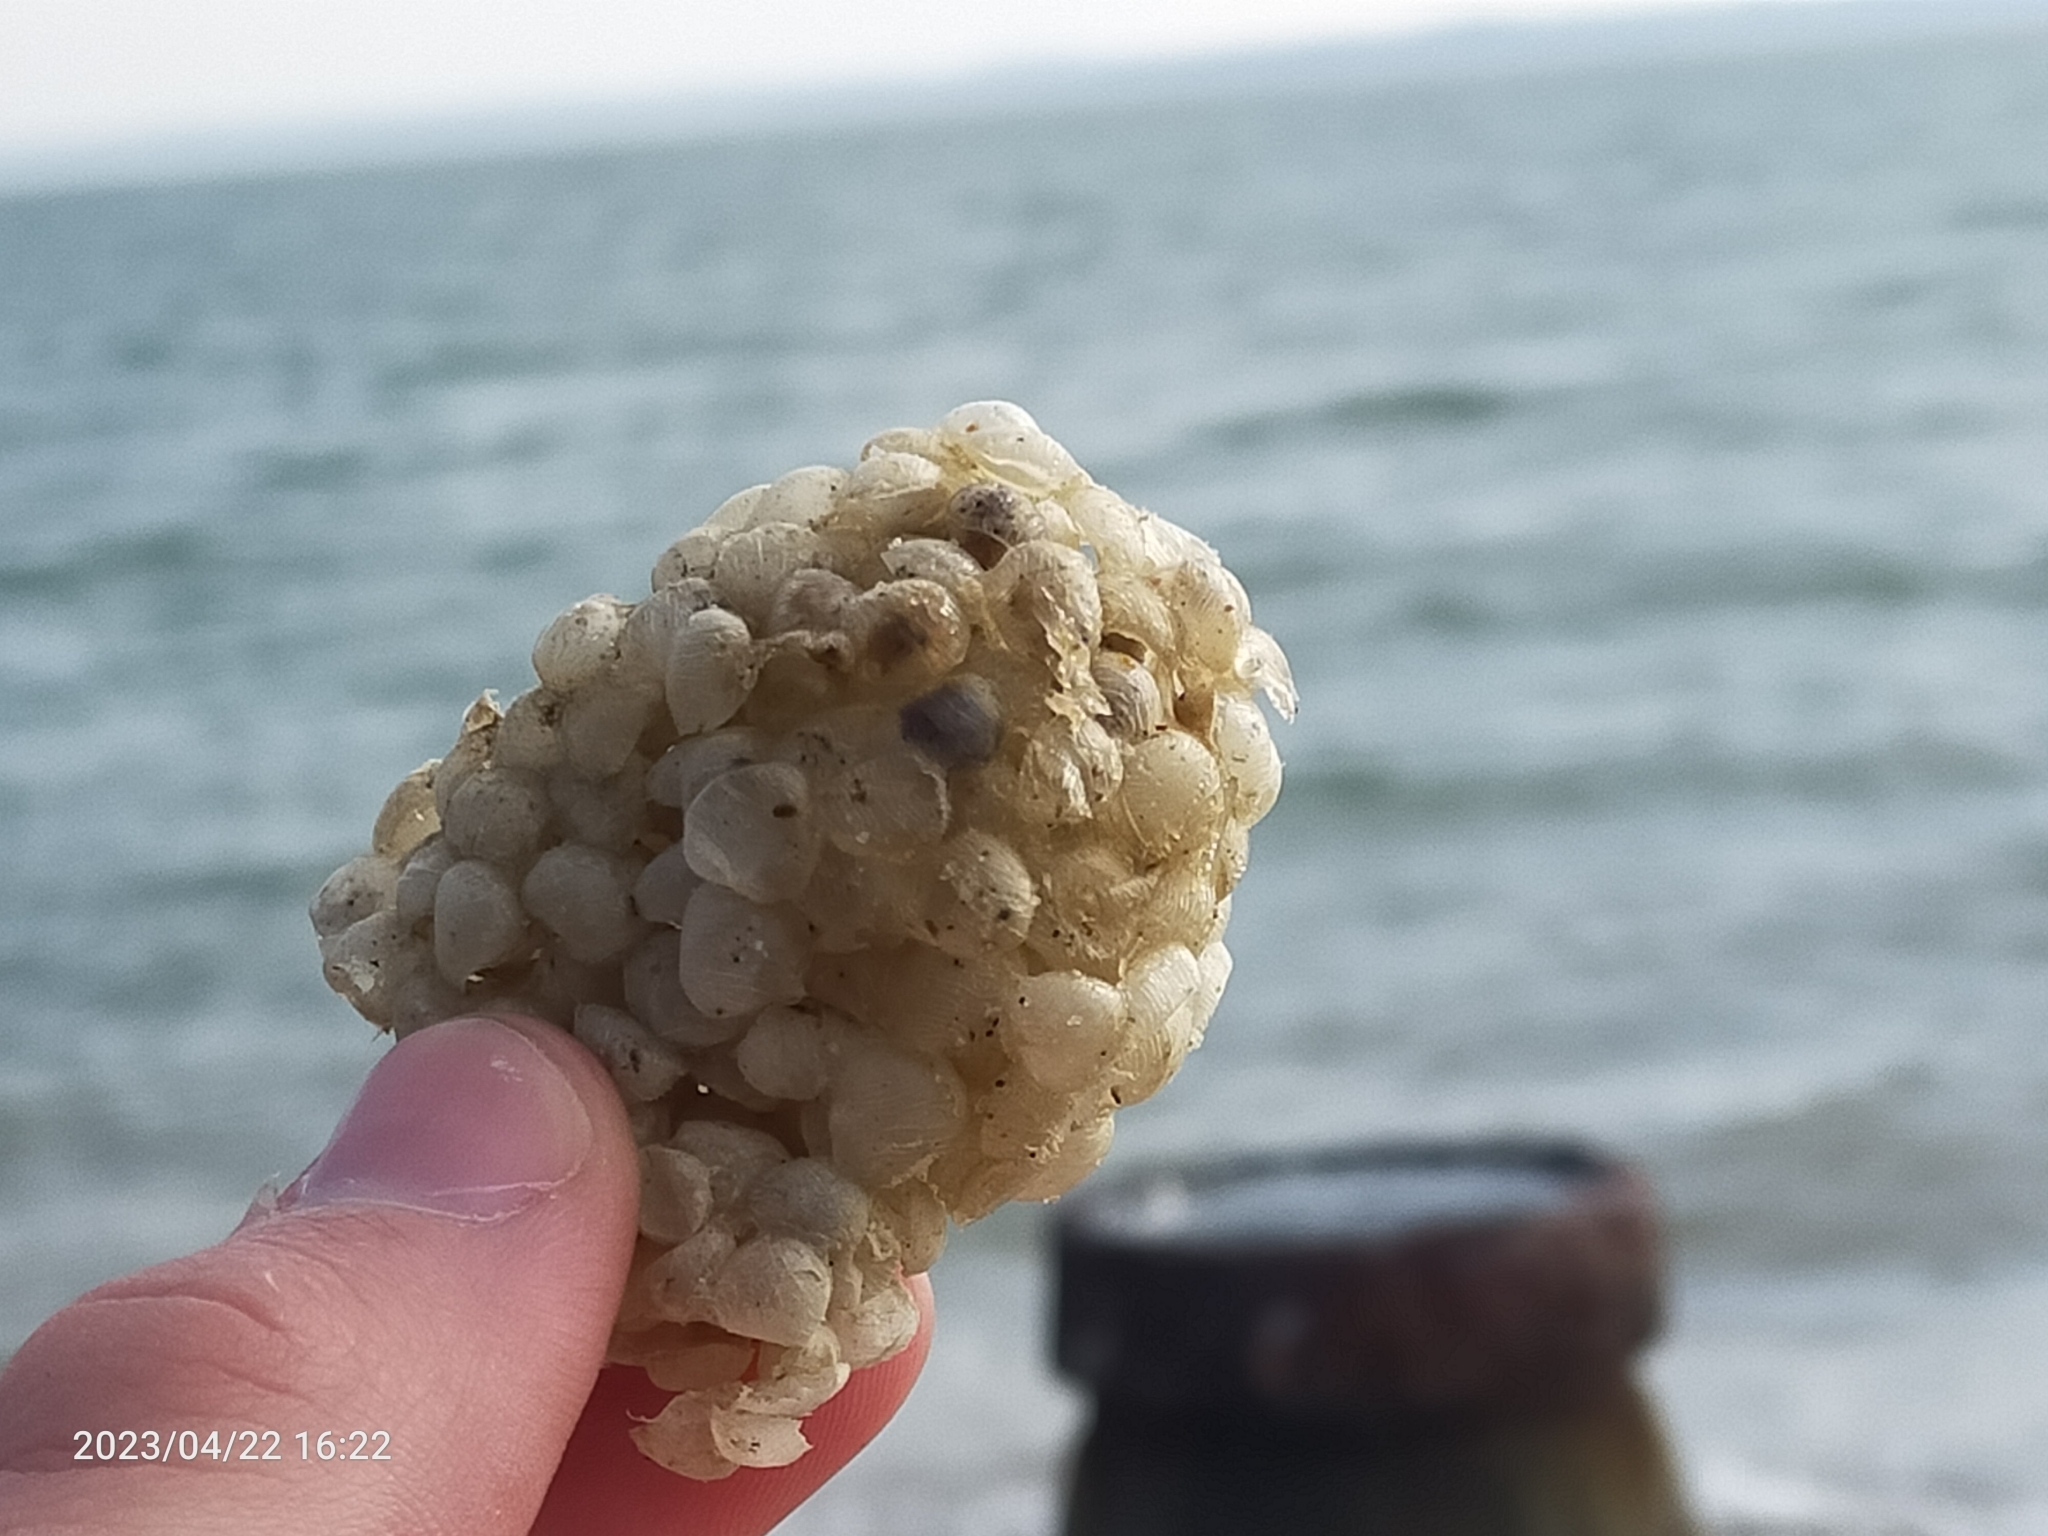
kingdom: Animalia
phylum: Mollusca
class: Gastropoda
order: Neogastropoda
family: Buccinidae
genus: Buccinum
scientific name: Buccinum undatum
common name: Common whelk
